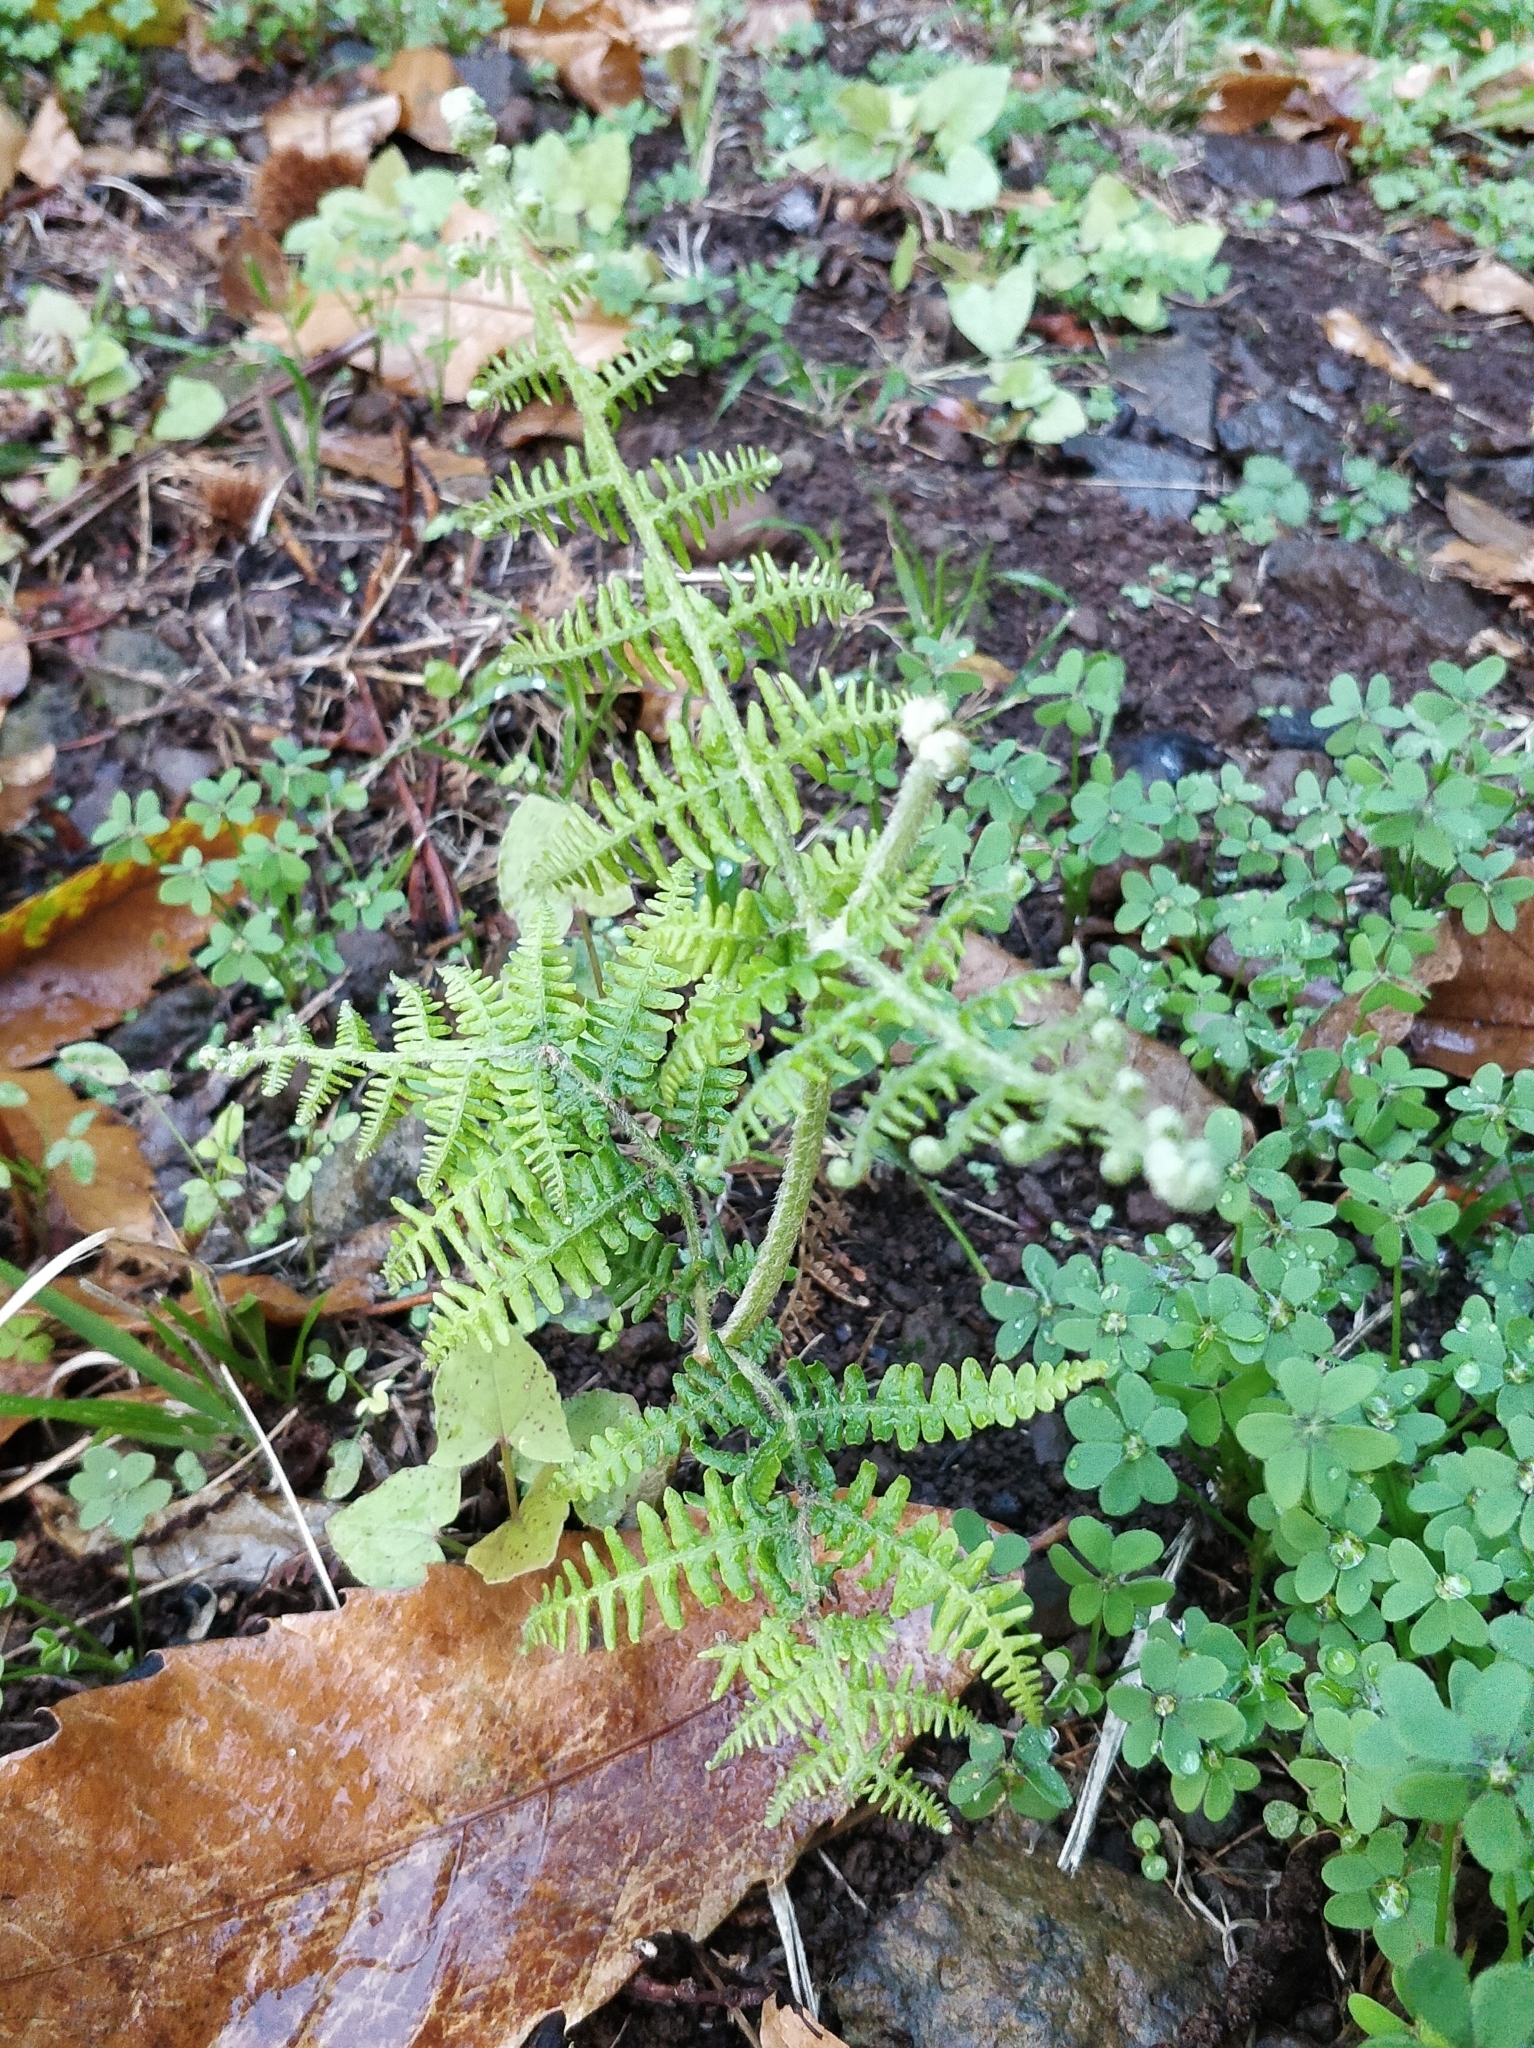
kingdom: Plantae
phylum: Tracheophyta
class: Polypodiopsida
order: Polypodiales
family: Dennstaedtiaceae
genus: Pteridium
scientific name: Pteridium aquilinum
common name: Bracken
